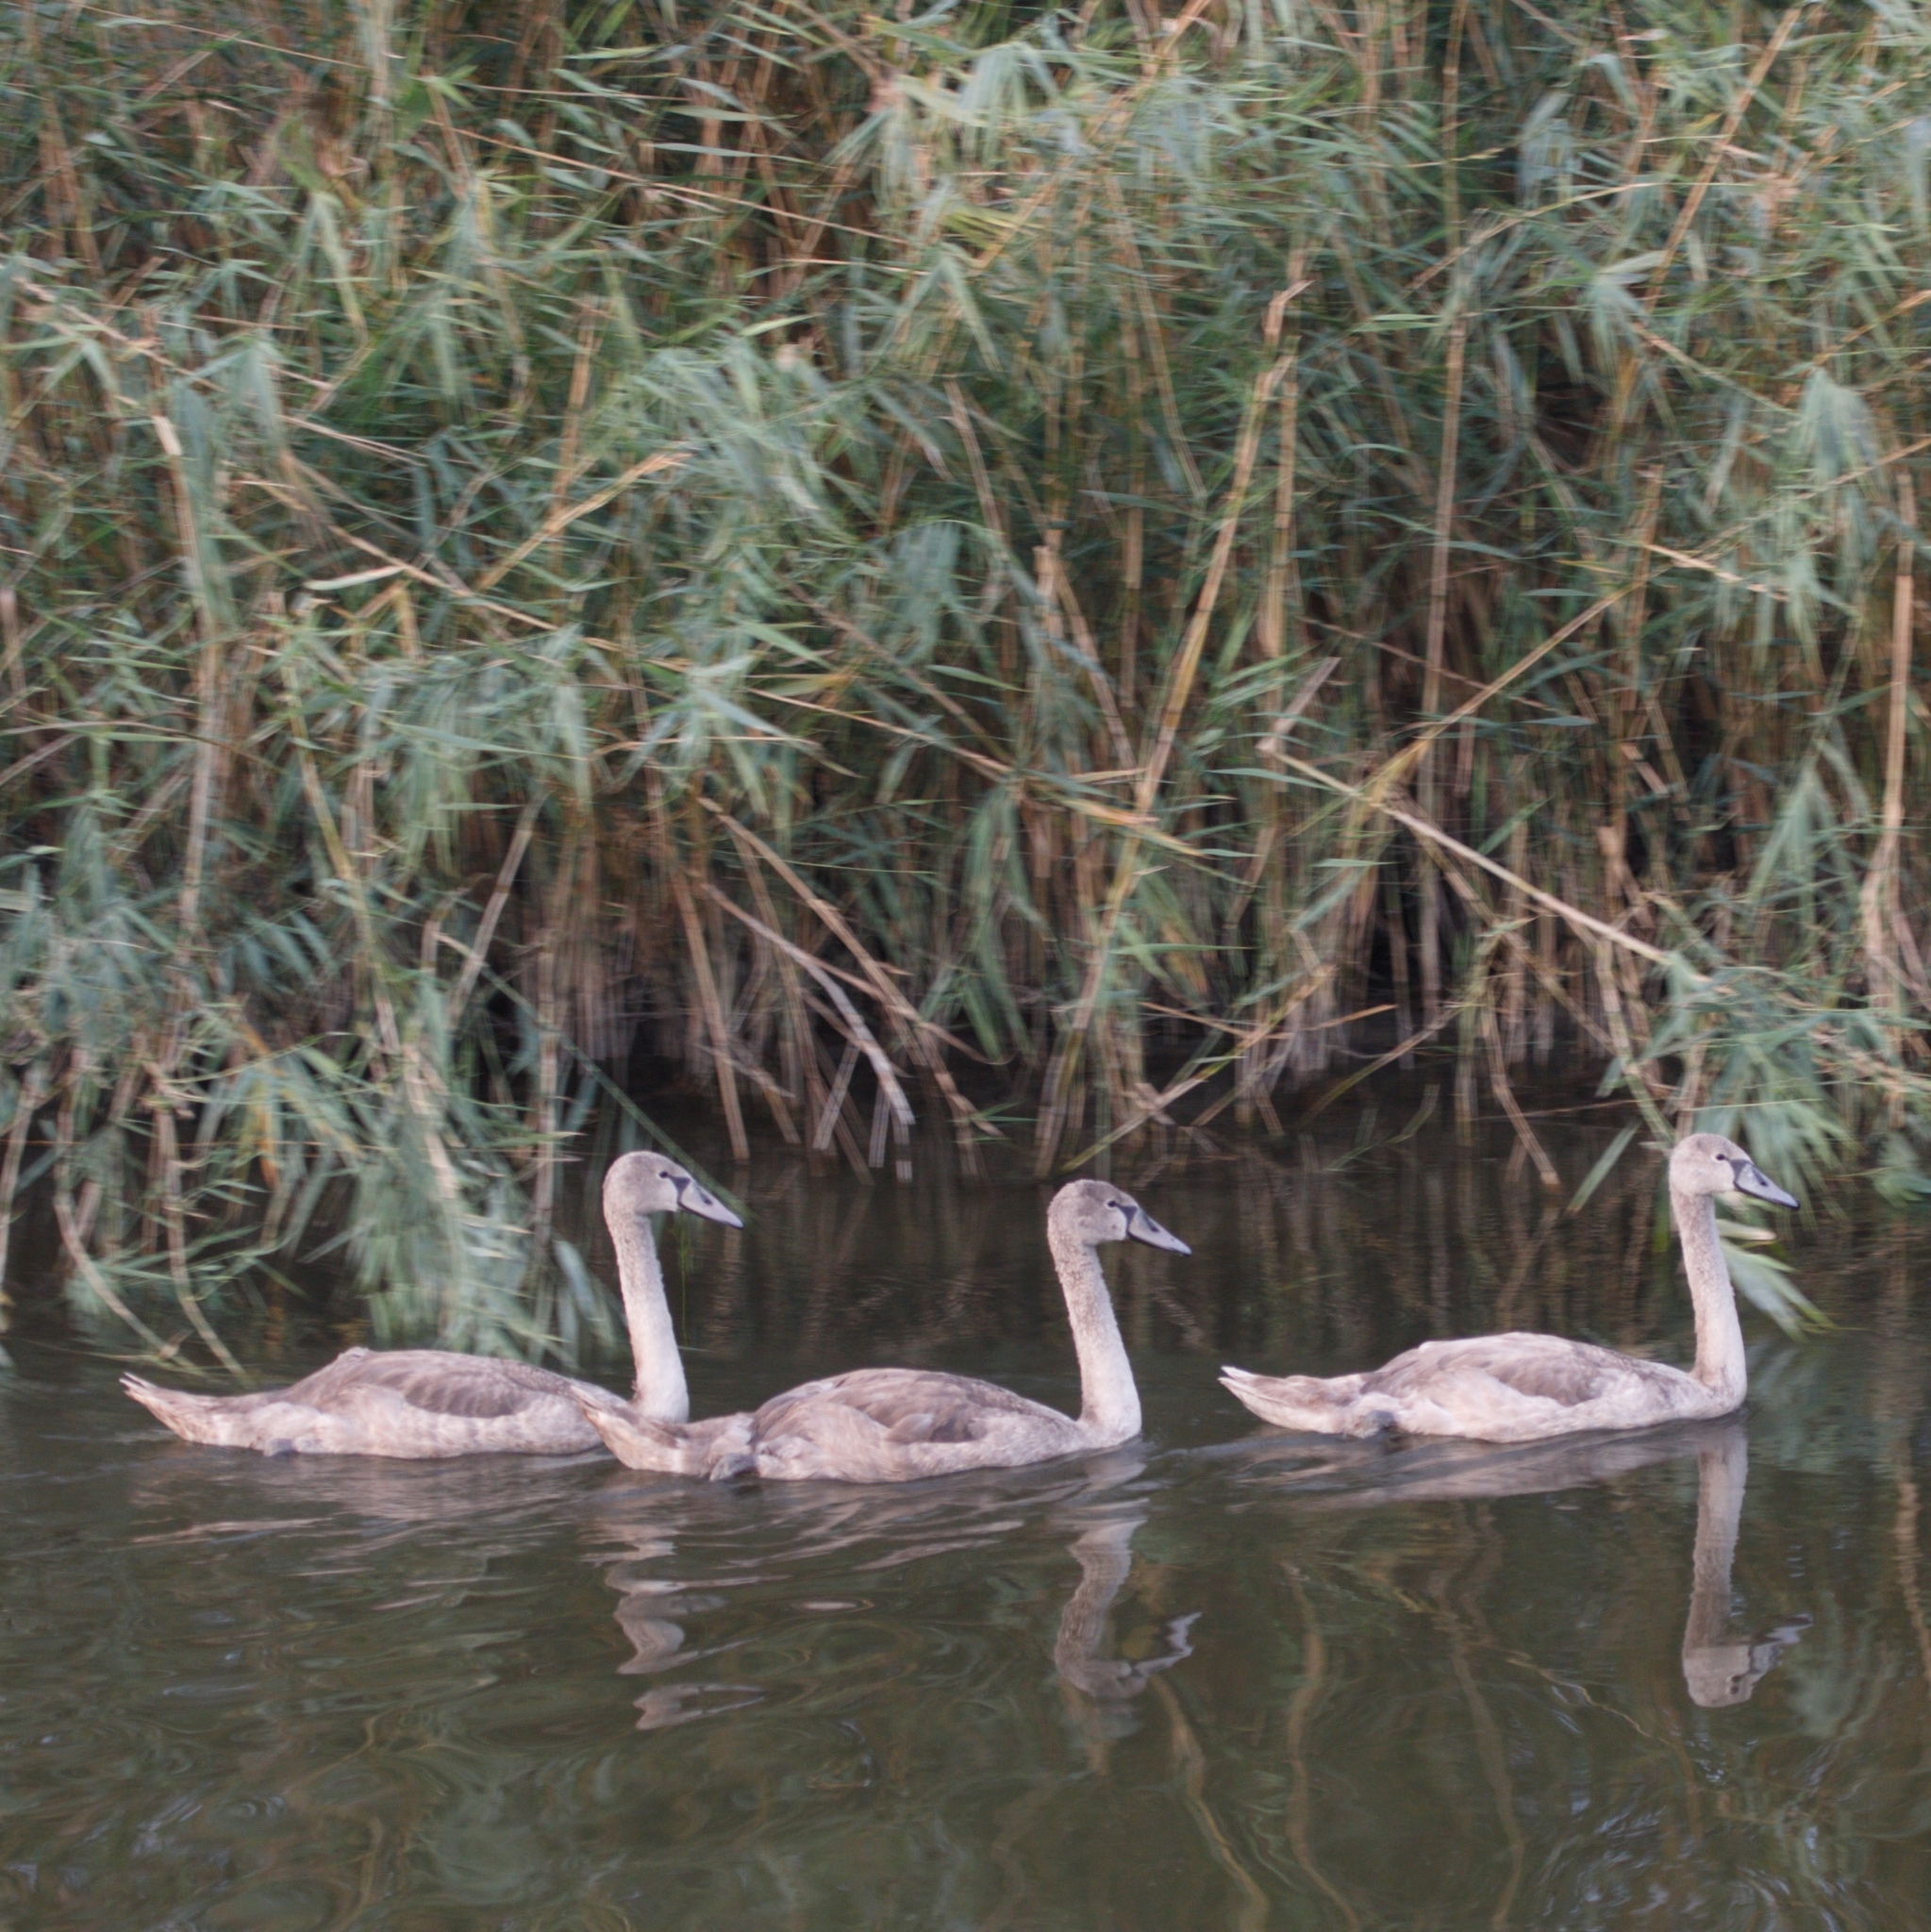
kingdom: Animalia
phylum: Chordata
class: Aves
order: Anseriformes
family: Anatidae
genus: Cygnus
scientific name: Cygnus olor
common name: Mute swan
